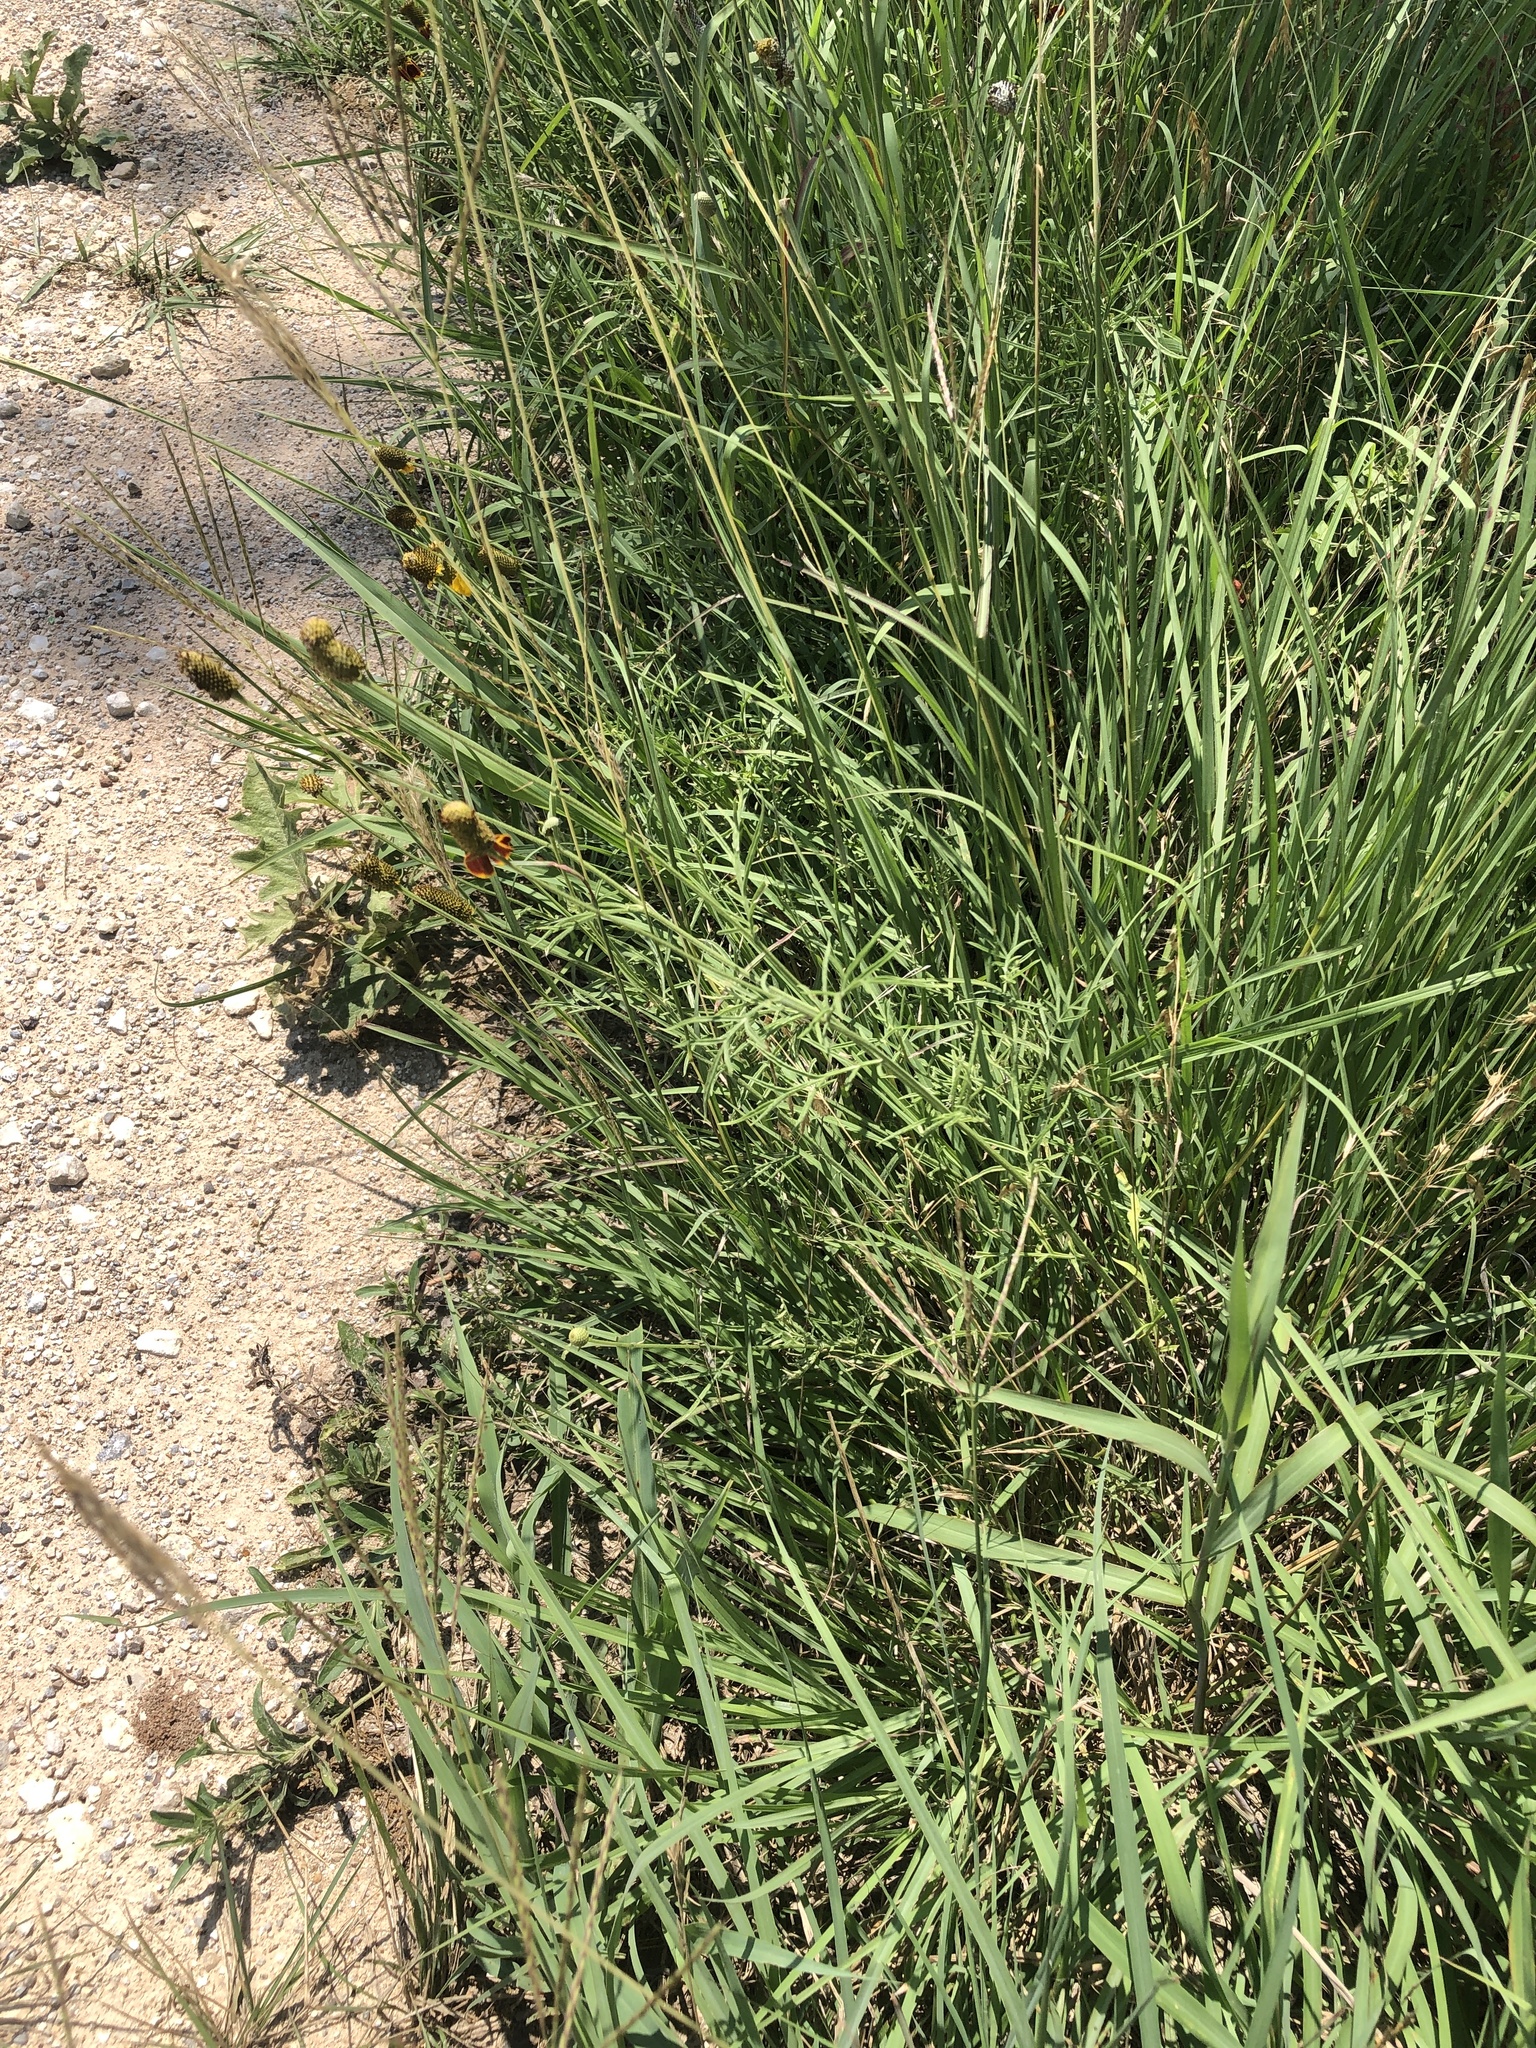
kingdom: Plantae
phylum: Tracheophyta
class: Magnoliopsida
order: Asterales
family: Asteraceae
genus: Ratibida
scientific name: Ratibida columnifera
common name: Prairie coneflower
